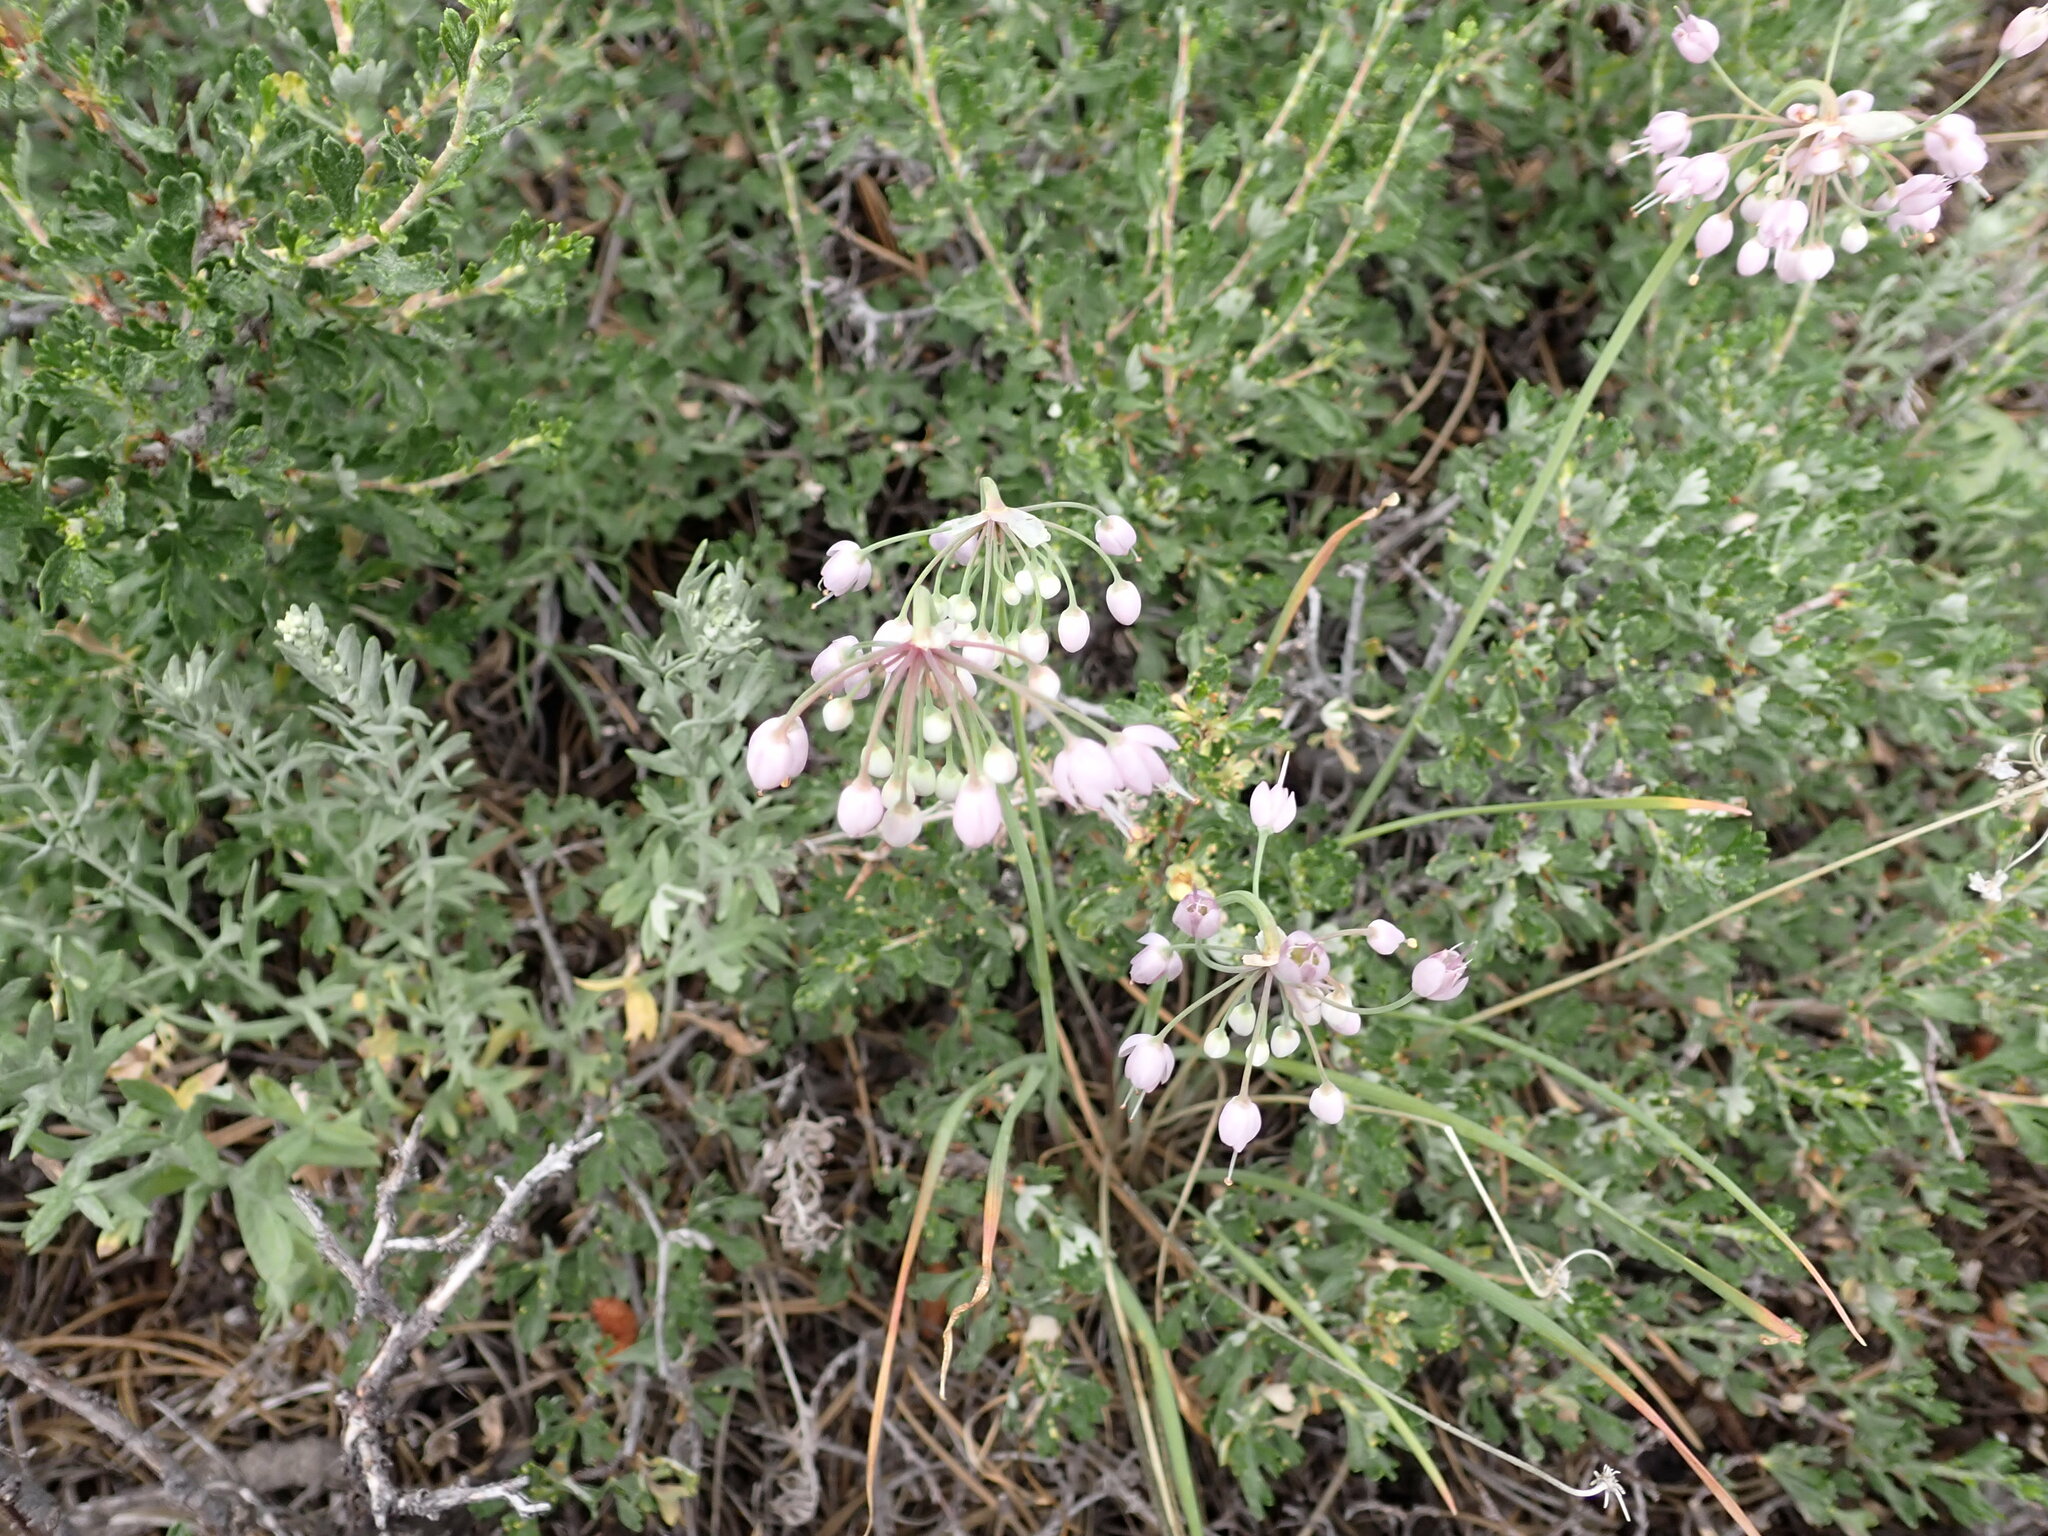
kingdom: Plantae
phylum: Tracheophyta
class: Liliopsida
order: Asparagales
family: Amaryllidaceae
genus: Allium
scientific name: Allium cernuum
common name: Nodding onion
